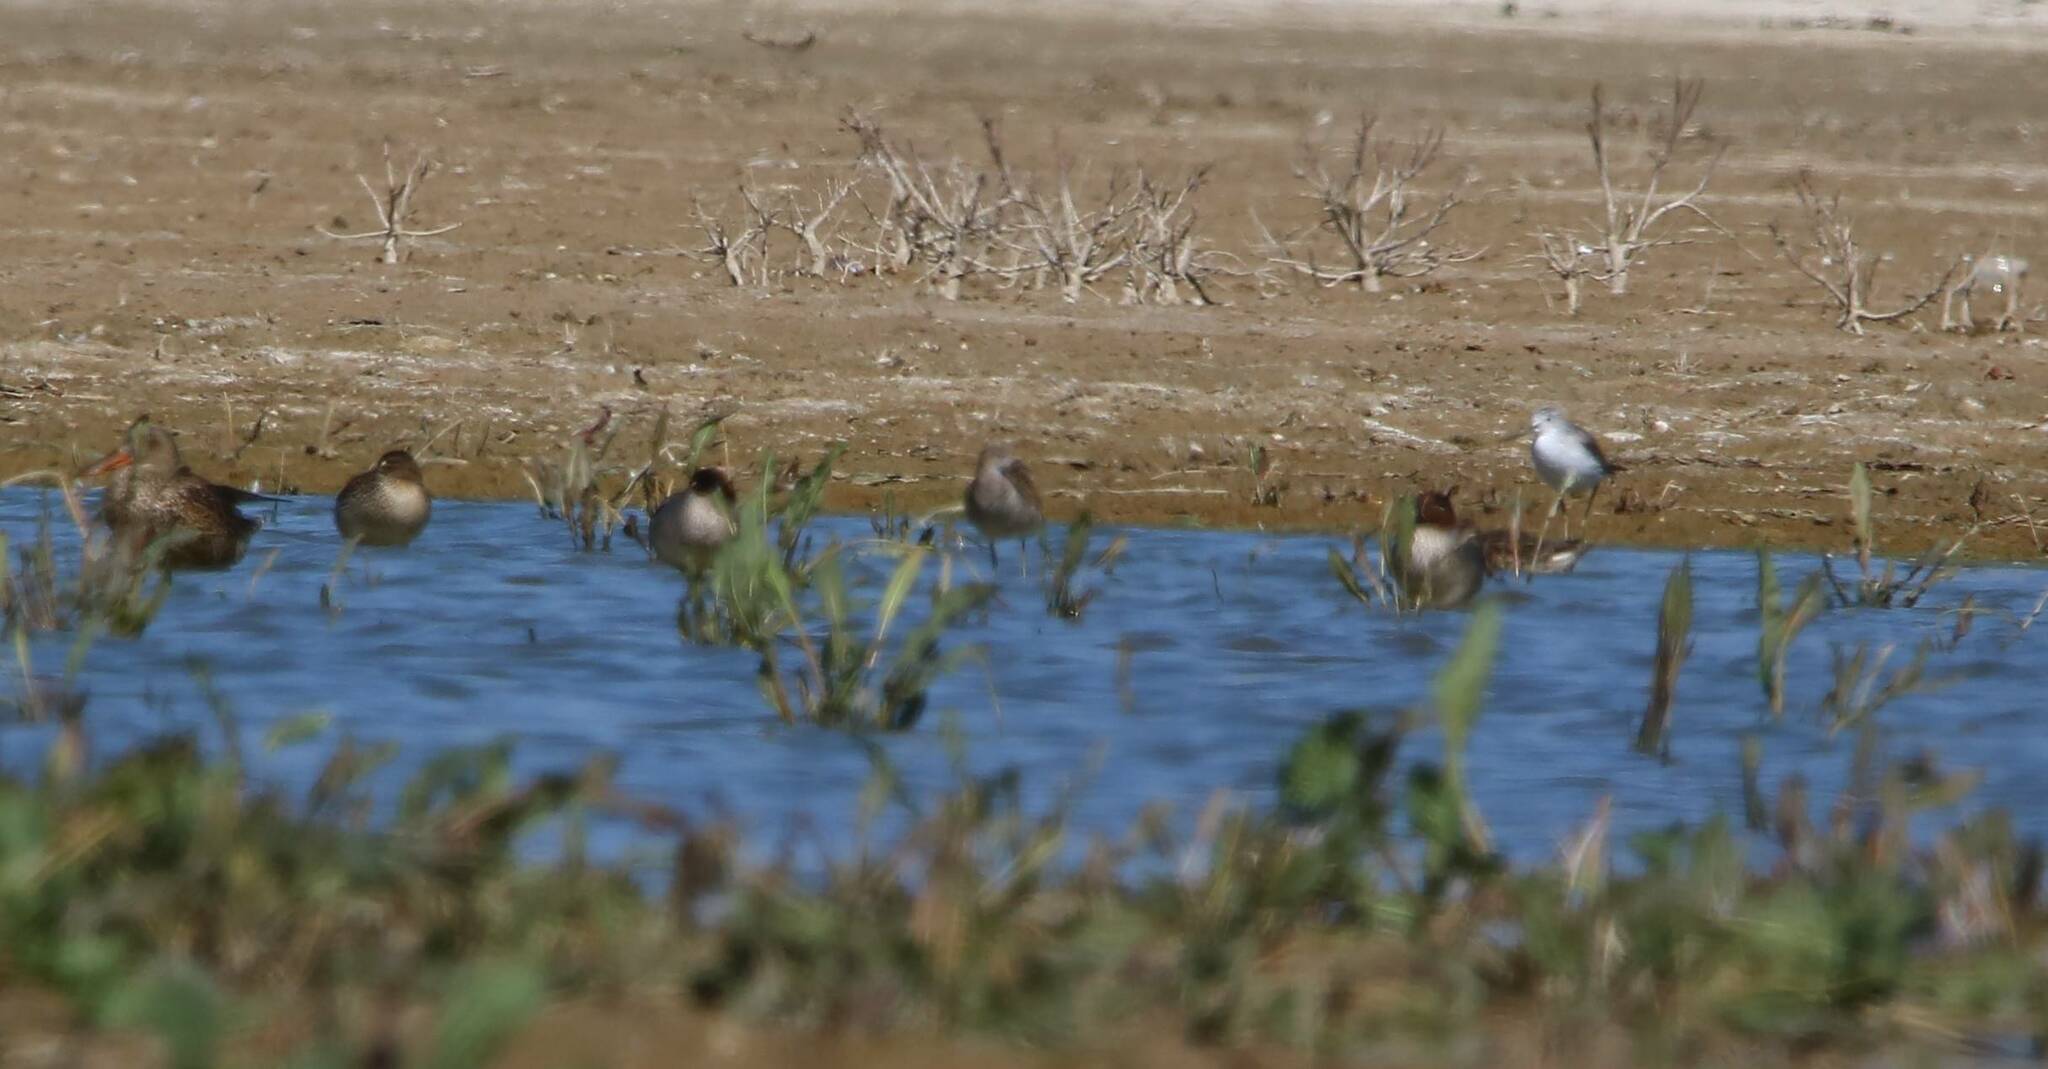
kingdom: Animalia
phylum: Chordata
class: Aves
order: Charadriiformes
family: Scolopacidae
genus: Calidris
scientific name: Calidris pugnax
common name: Ruff
